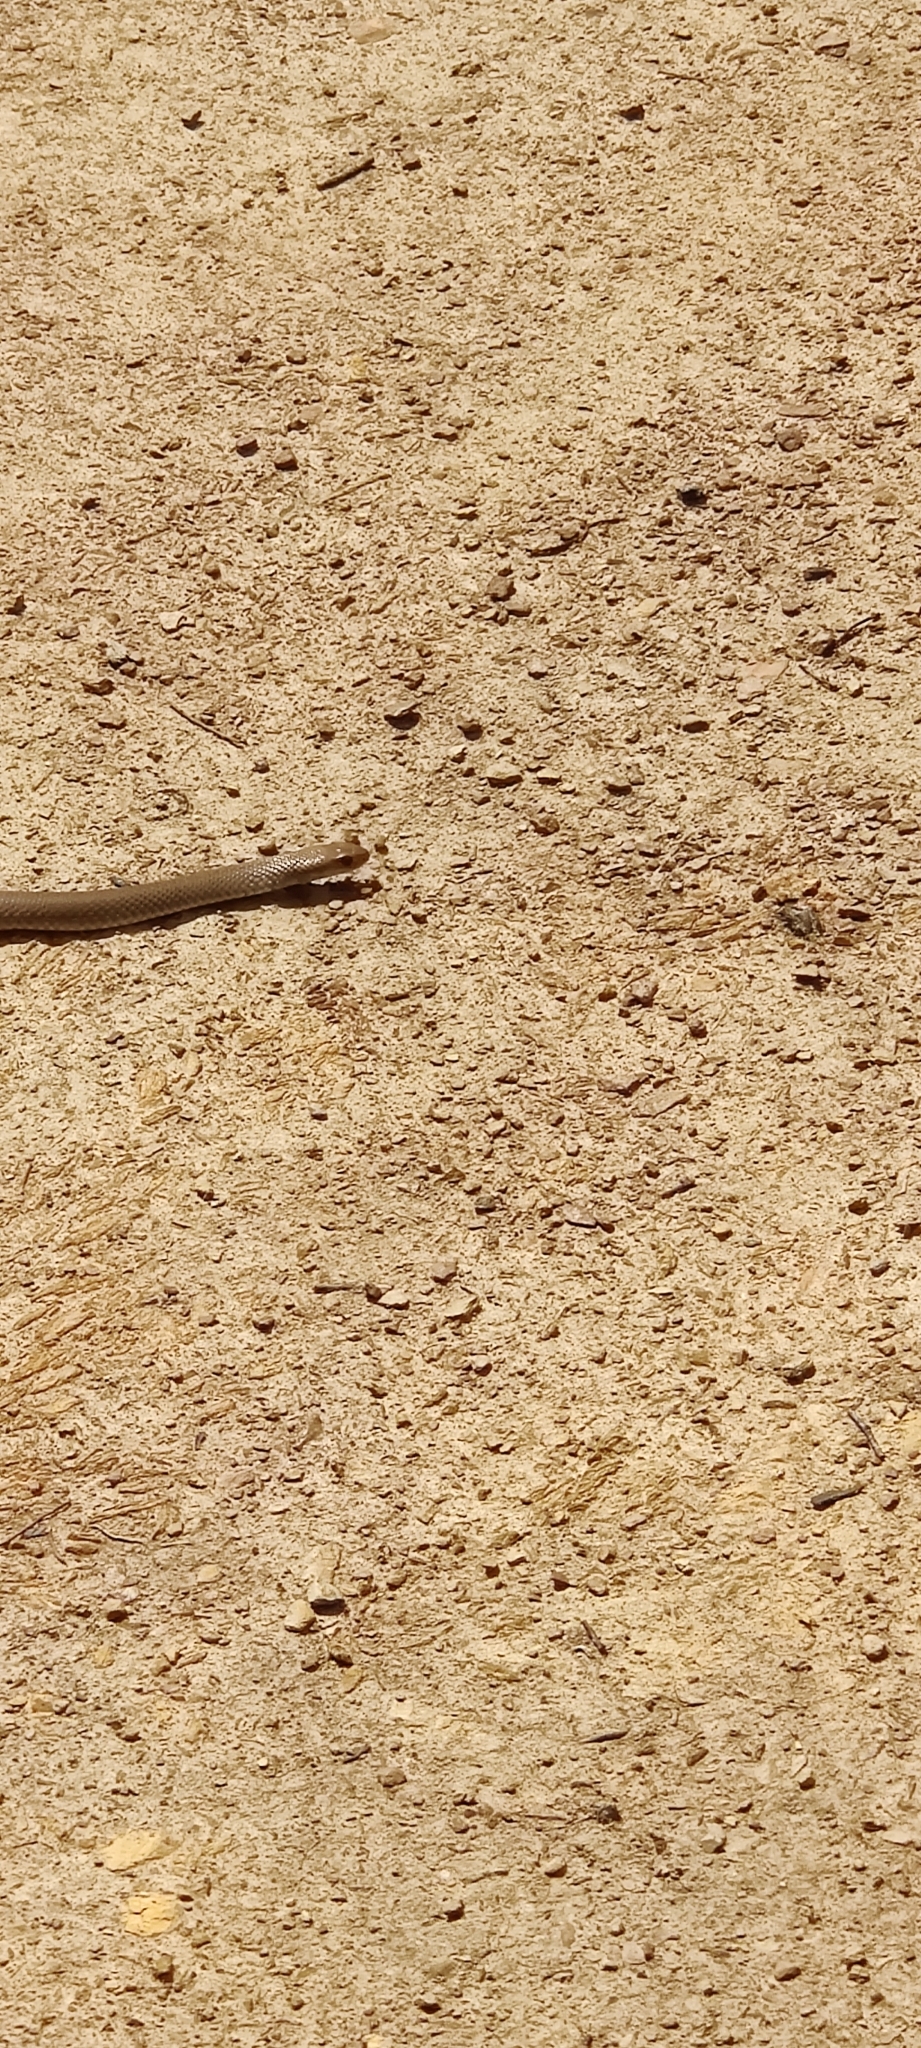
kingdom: Animalia
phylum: Chordata
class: Squamata
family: Elapidae
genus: Pseudonaja
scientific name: Pseudonaja textilis
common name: Eastern brown snake
